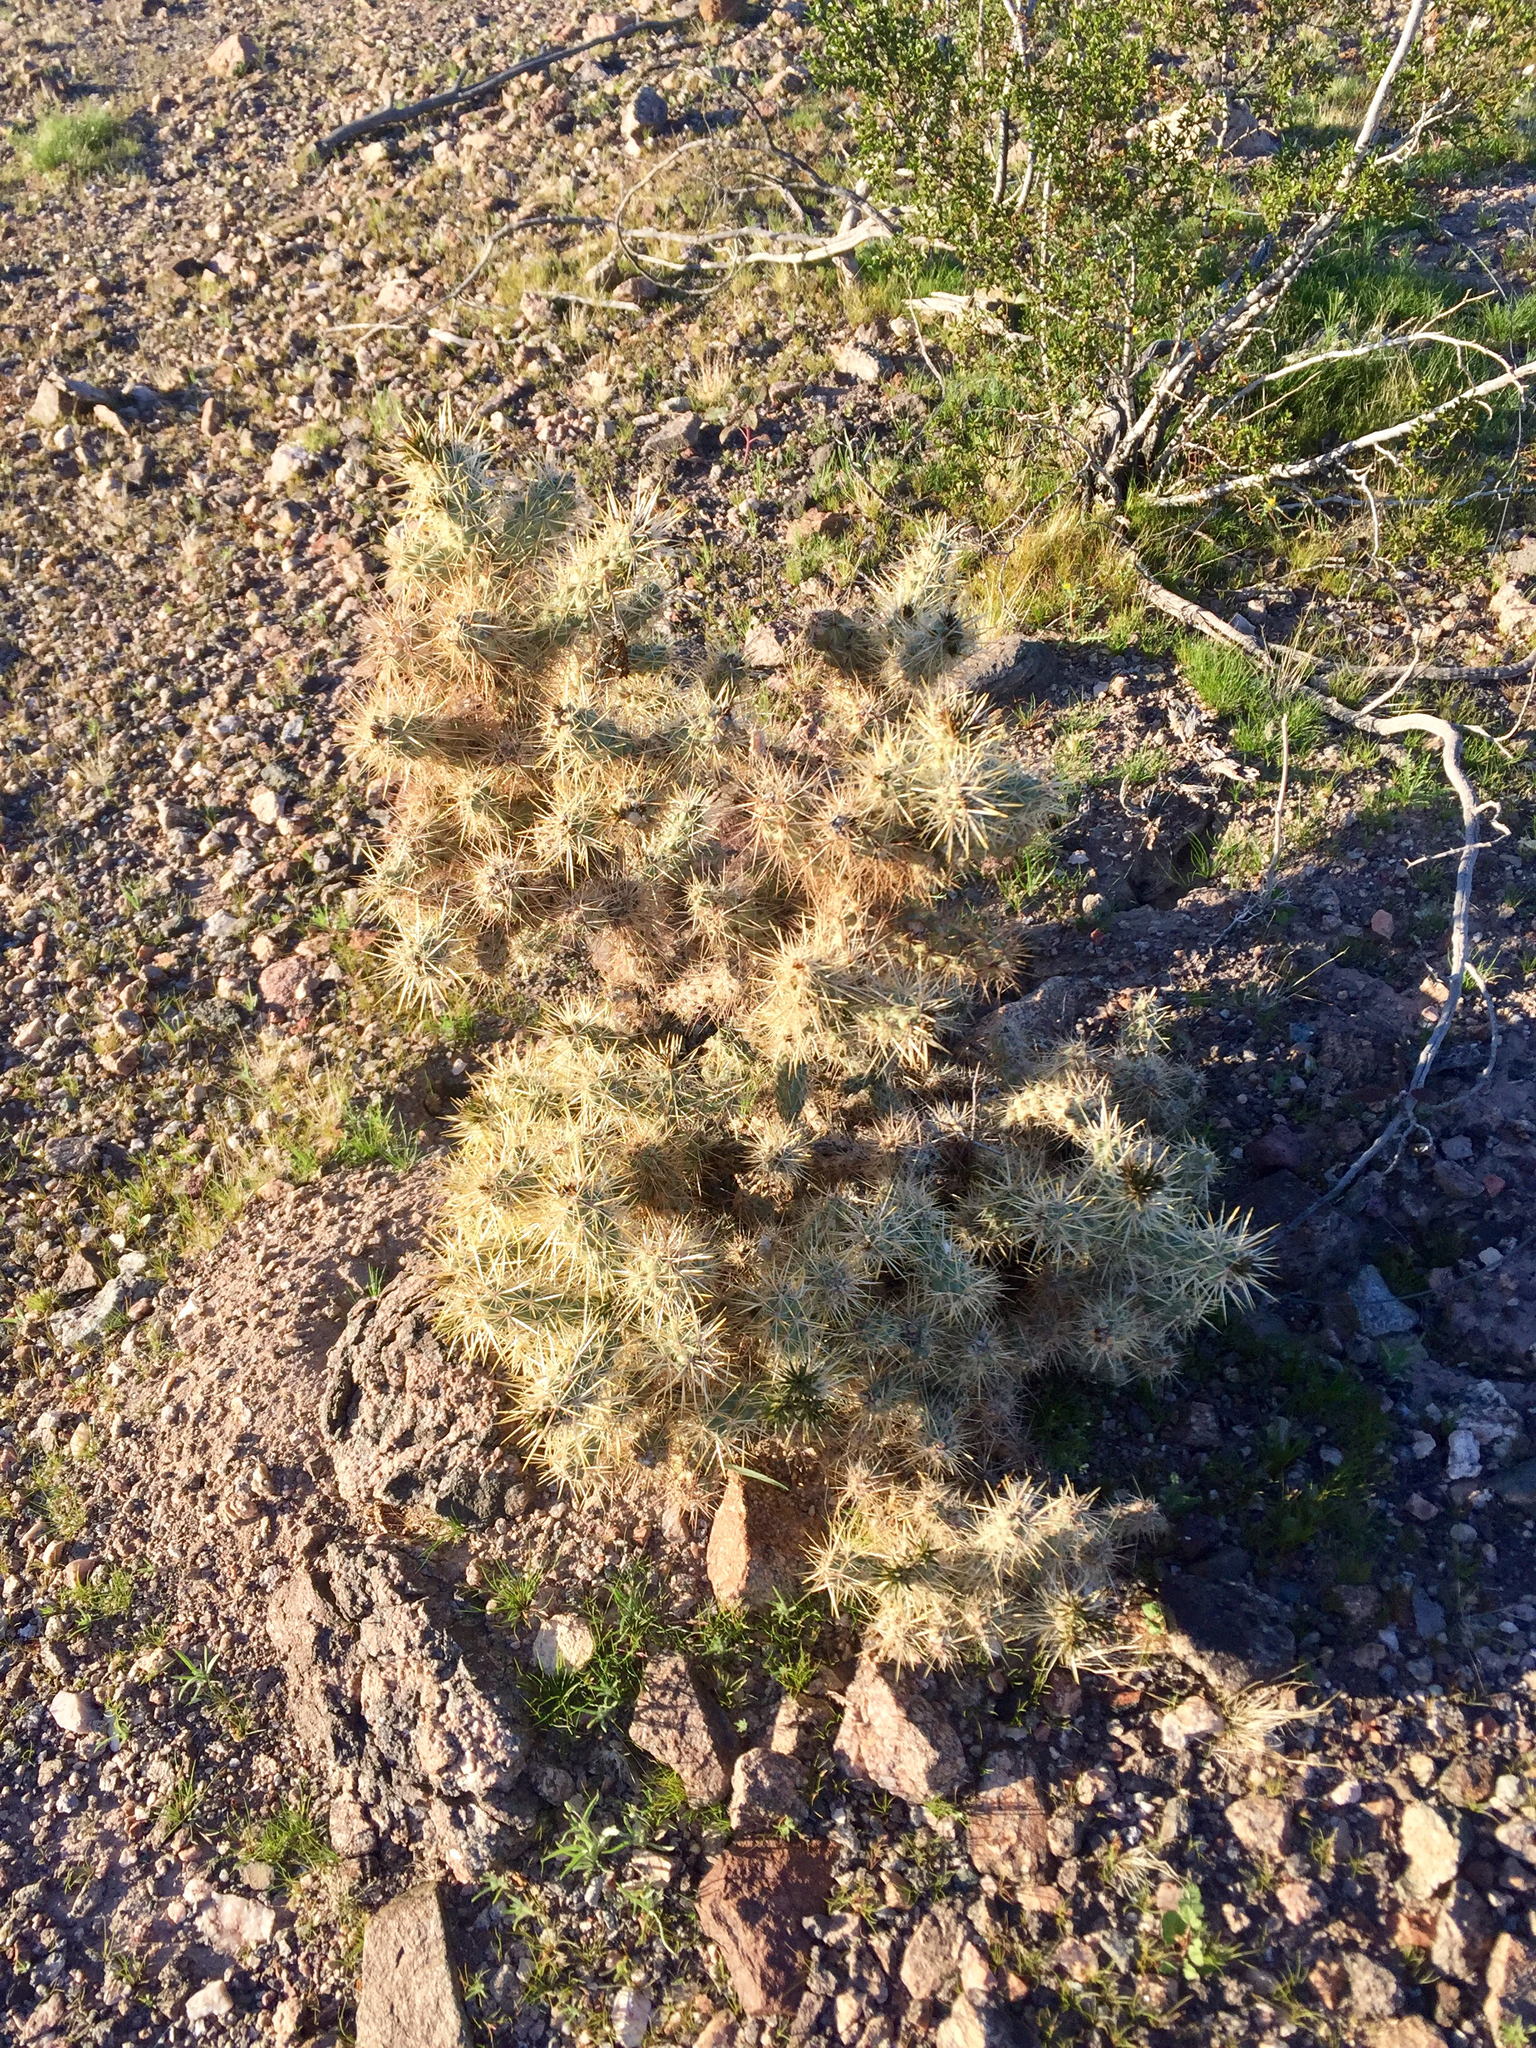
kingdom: Plantae
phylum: Tracheophyta
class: Magnoliopsida
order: Caryophyllales
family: Cactaceae
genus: Cylindropuntia
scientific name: Cylindropuntia whipplei
